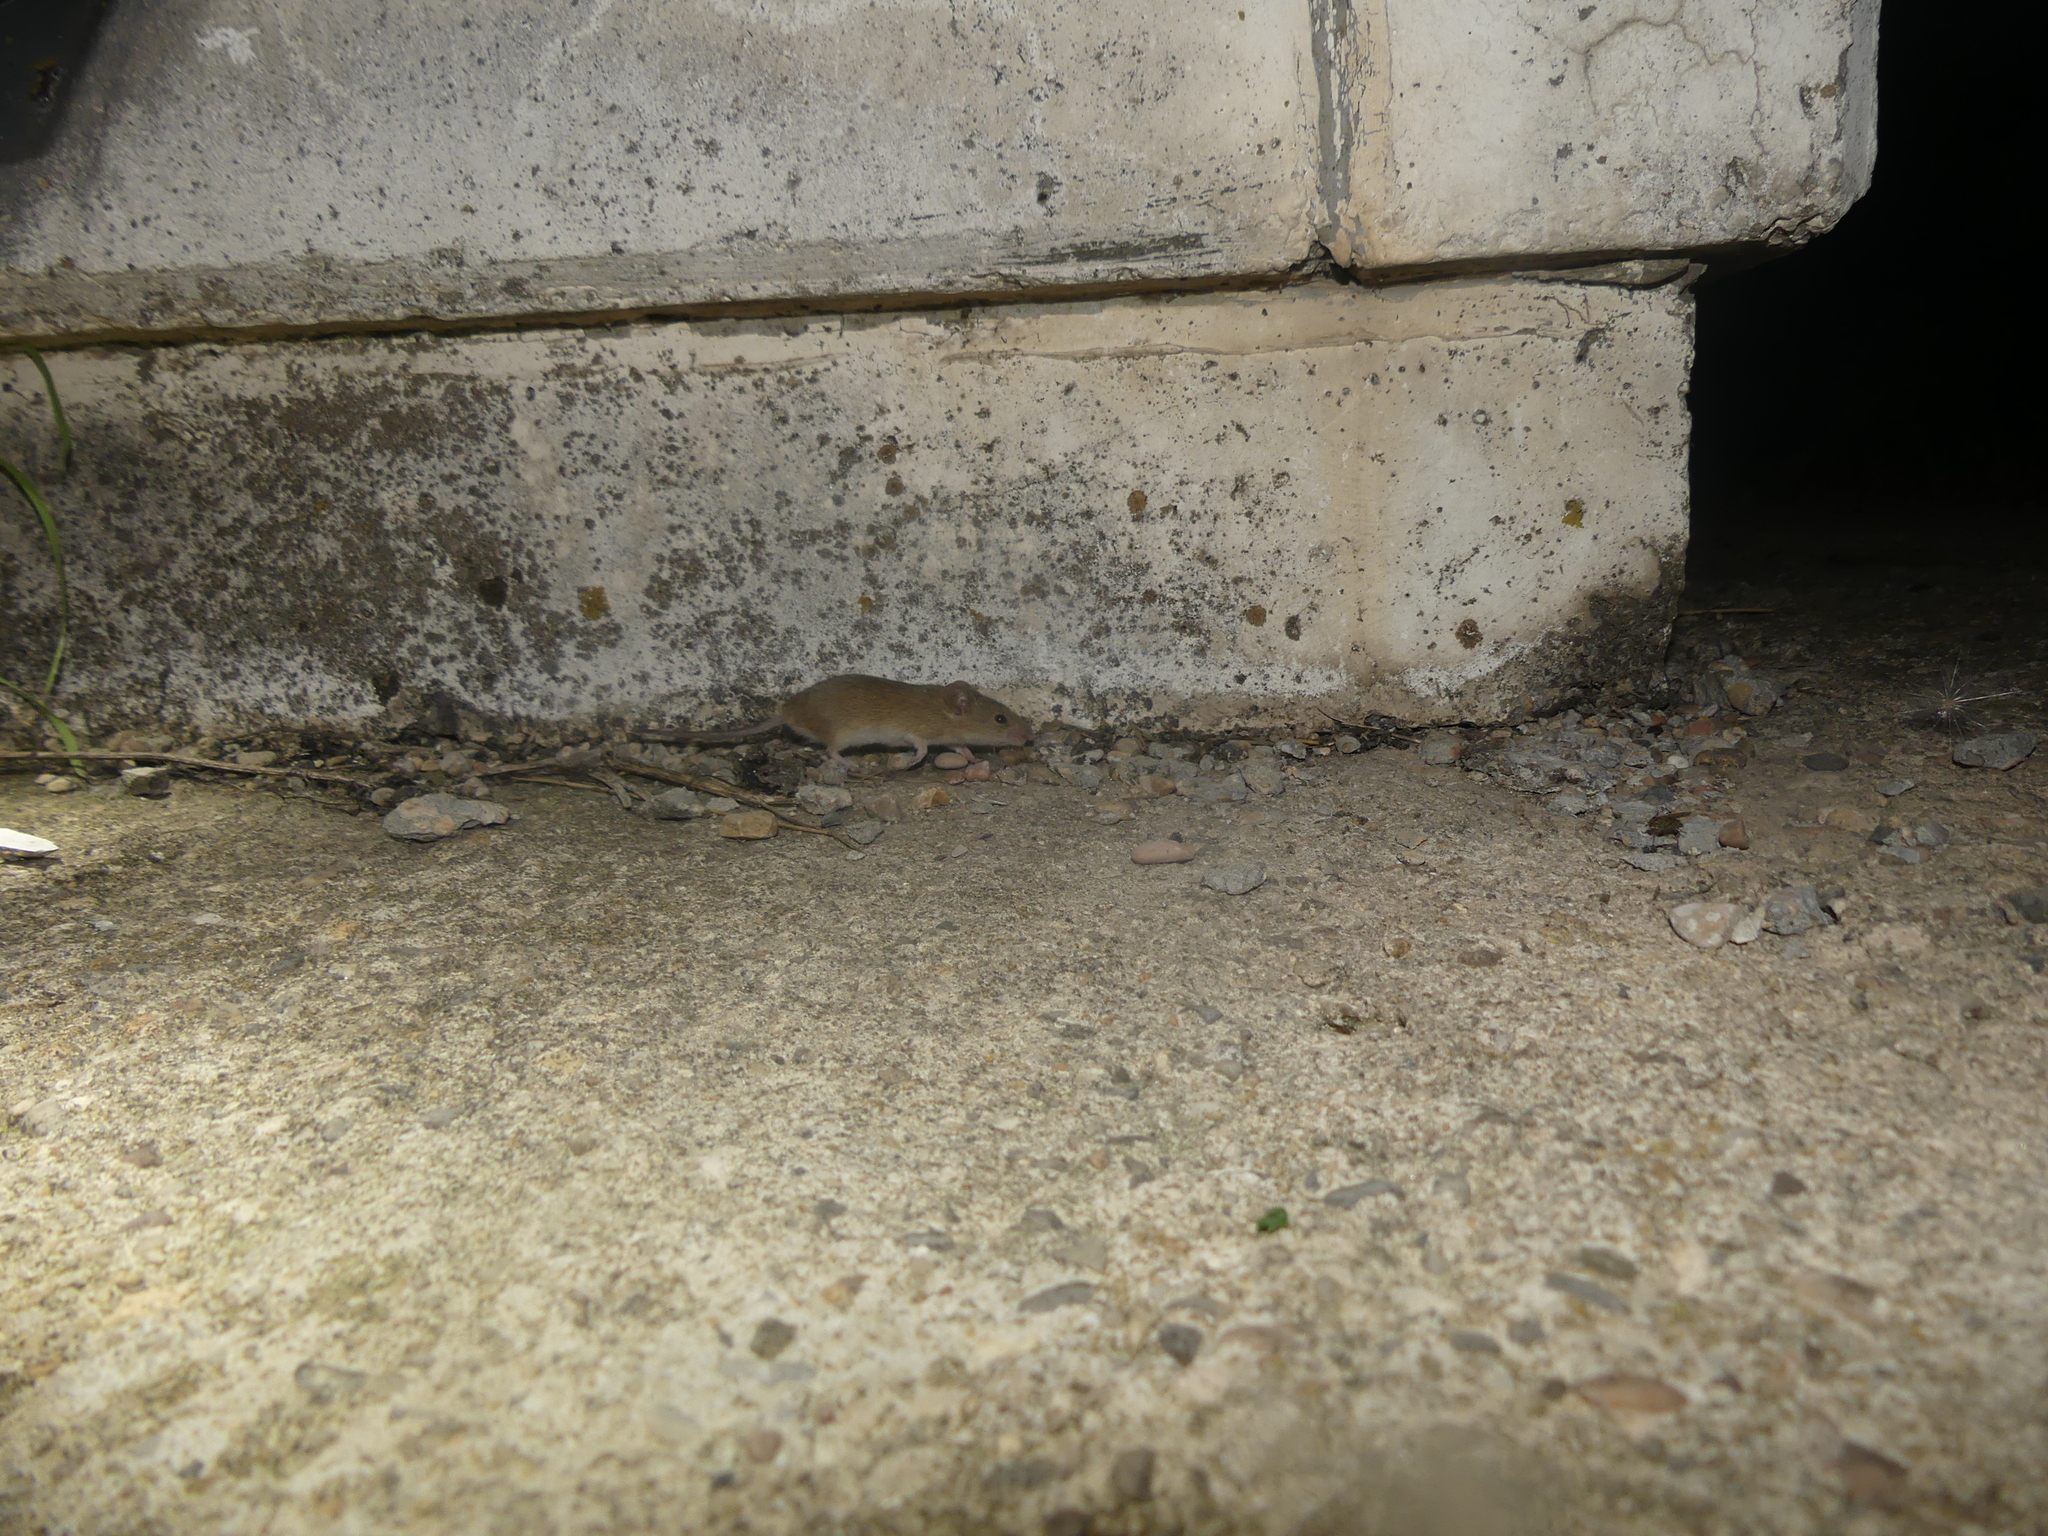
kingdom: Animalia
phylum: Chordata
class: Mammalia
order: Rodentia
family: Muridae
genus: Mus
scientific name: Mus spretus
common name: Western mediterranean mouse
